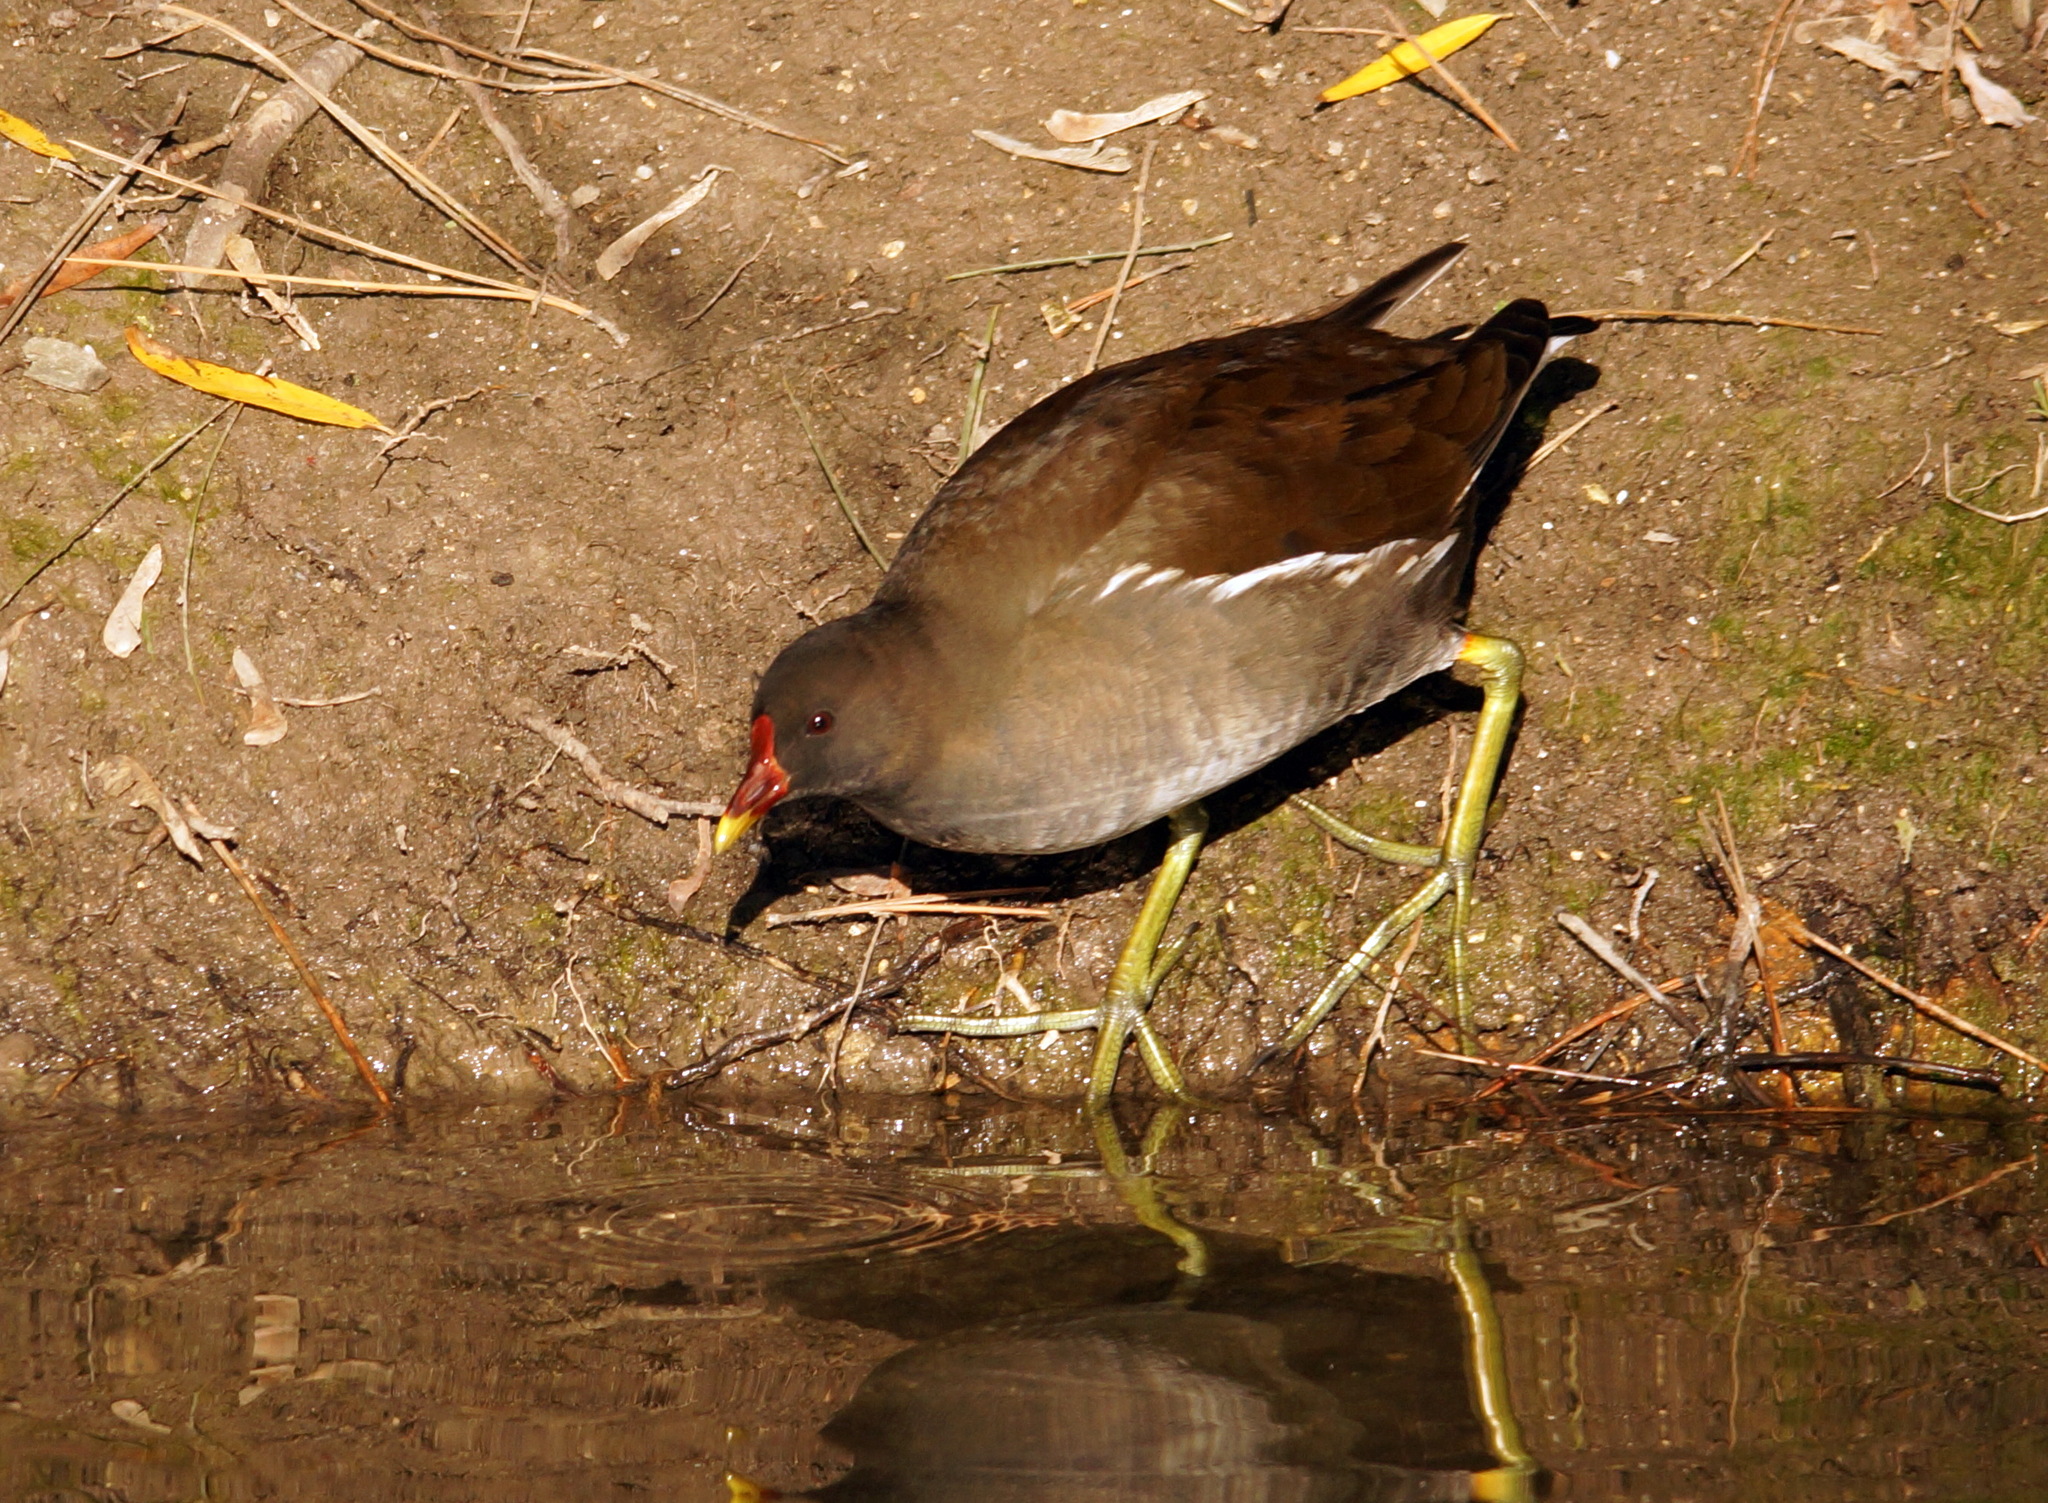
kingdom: Animalia
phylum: Chordata
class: Aves
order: Gruiformes
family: Rallidae
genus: Gallinula
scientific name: Gallinula chloropus
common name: Common moorhen
